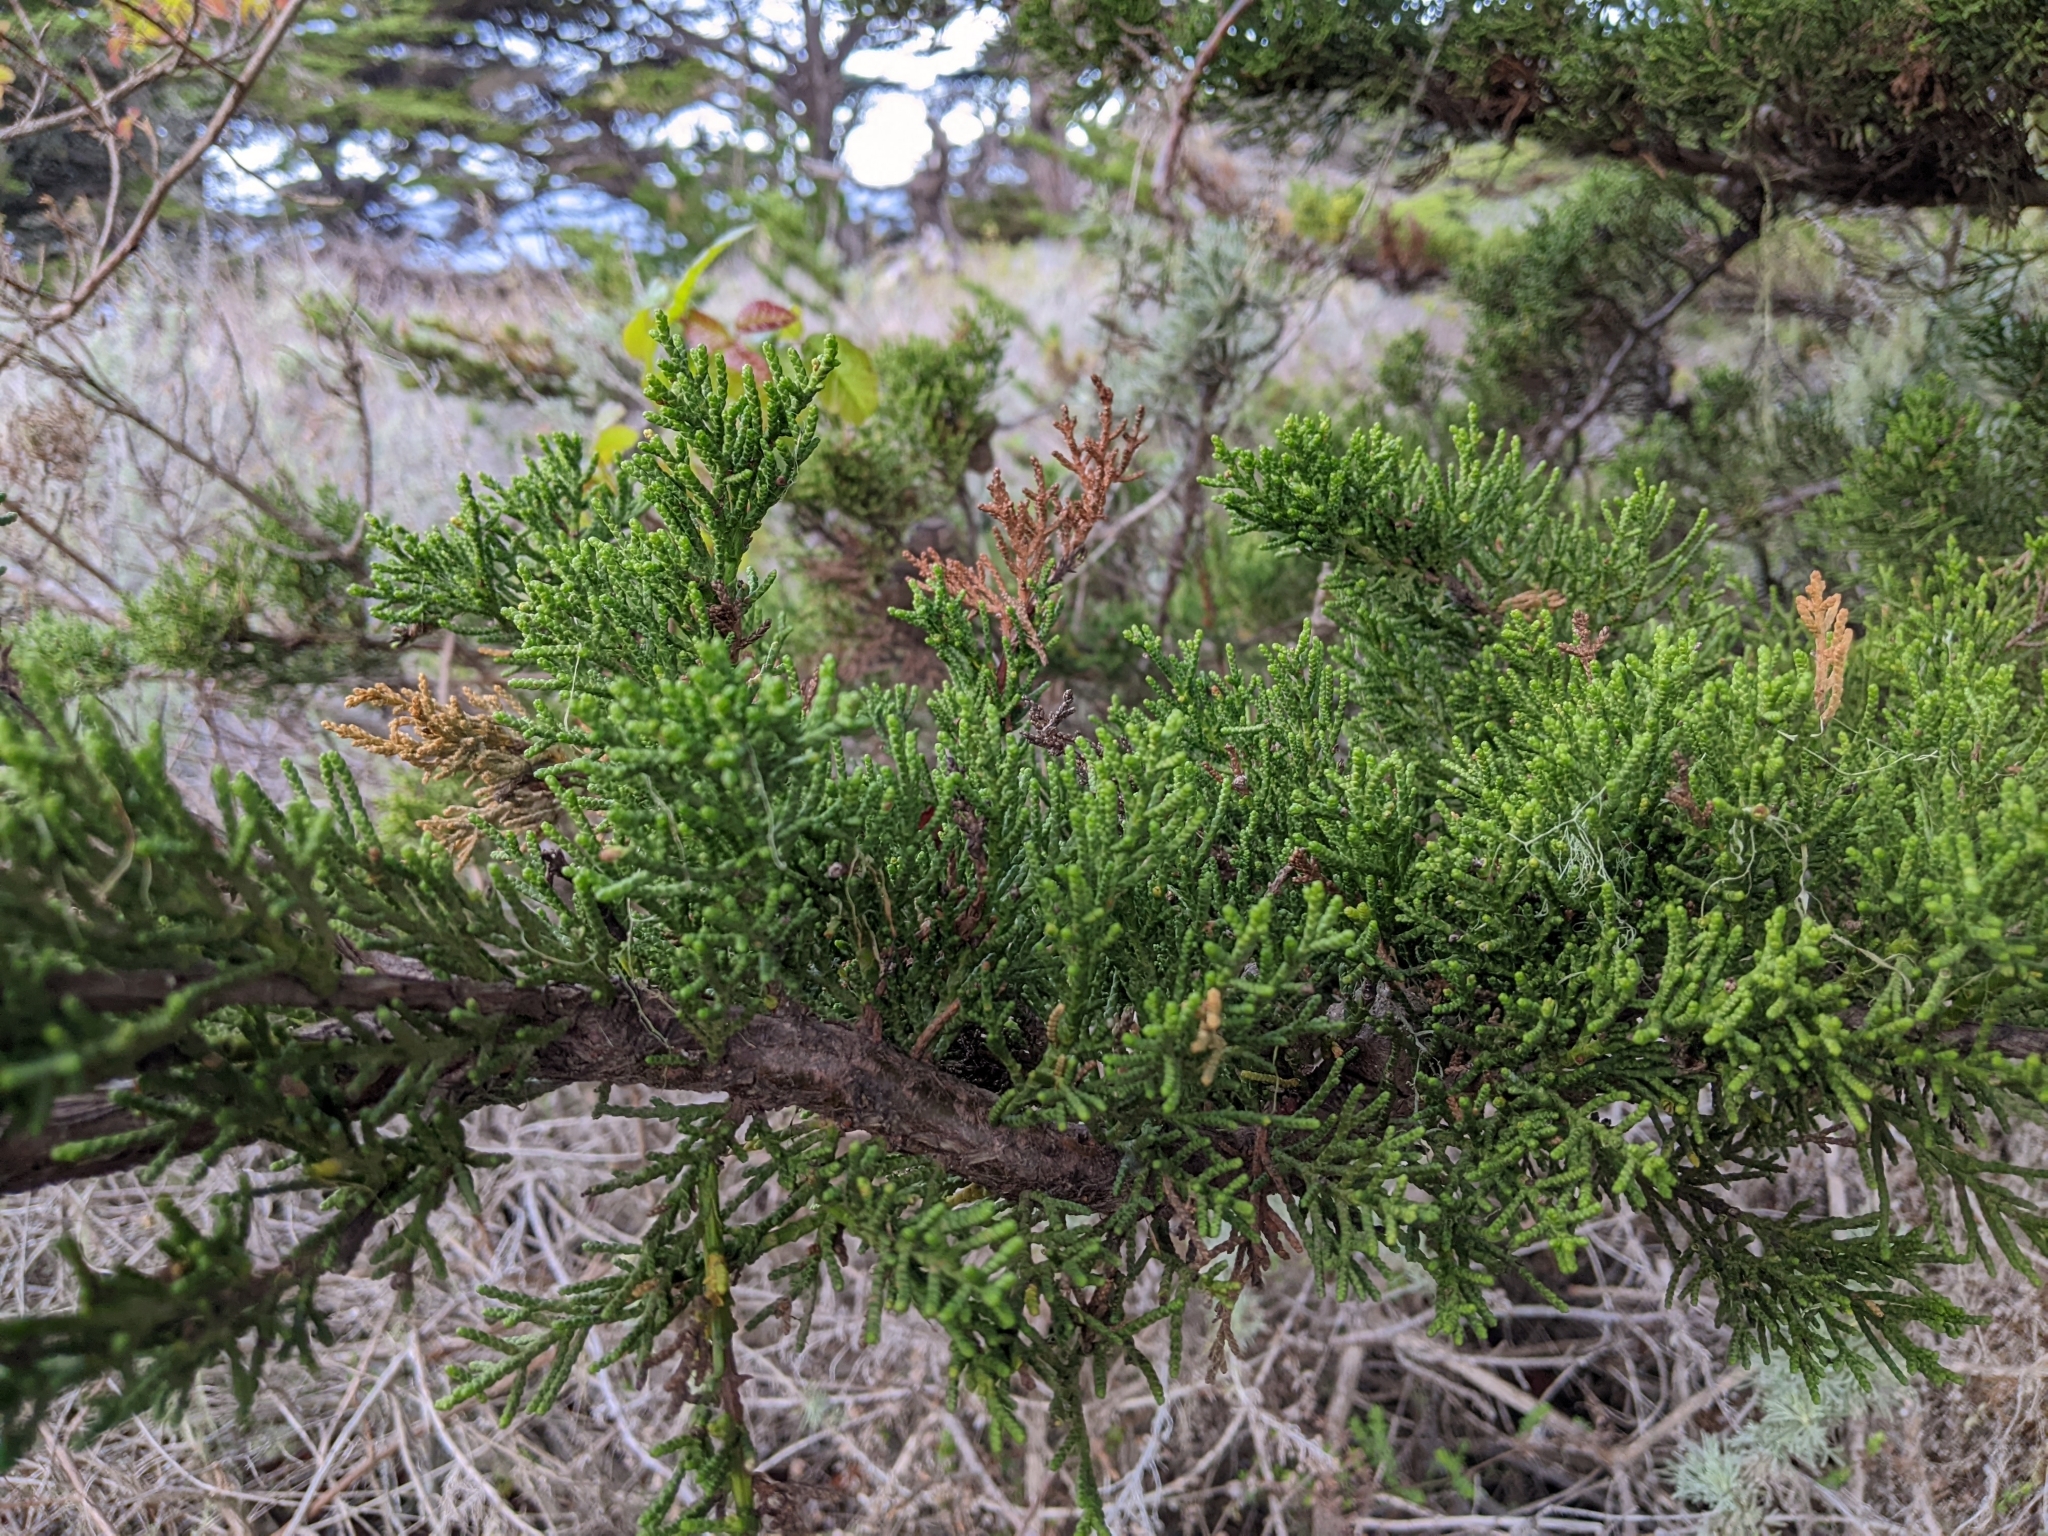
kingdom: Plantae
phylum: Tracheophyta
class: Pinopsida
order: Pinales
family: Cupressaceae
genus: Cupressus
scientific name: Cupressus macrocarpa
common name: Monterey cypress
